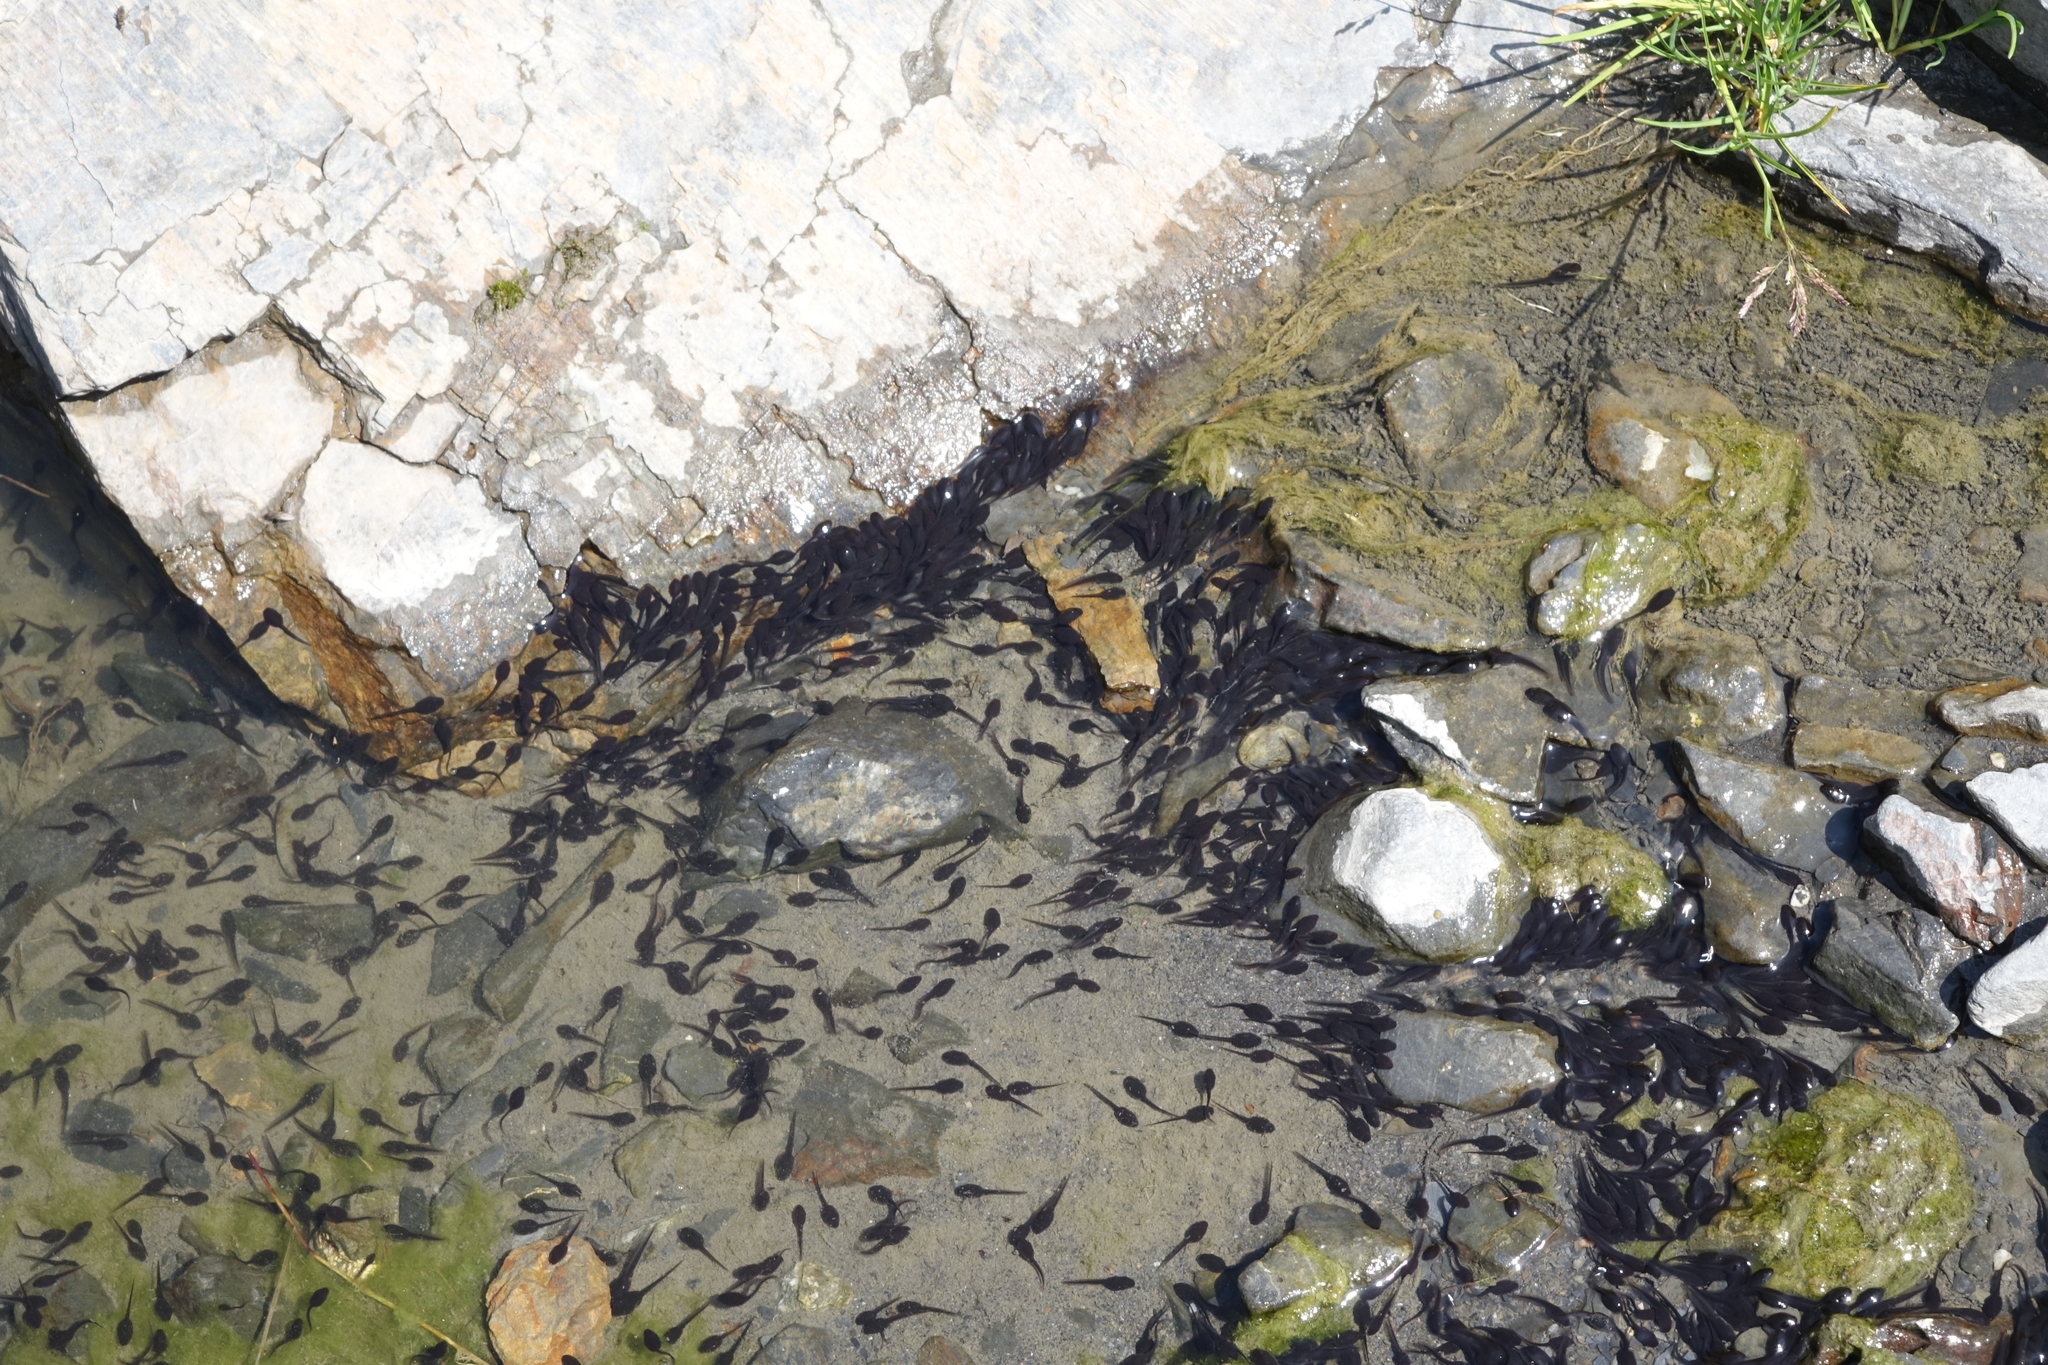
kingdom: Animalia
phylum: Chordata
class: Amphibia
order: Anura
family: Bufonidae
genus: Bufotes
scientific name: Bufotes viridis
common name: European green toad
